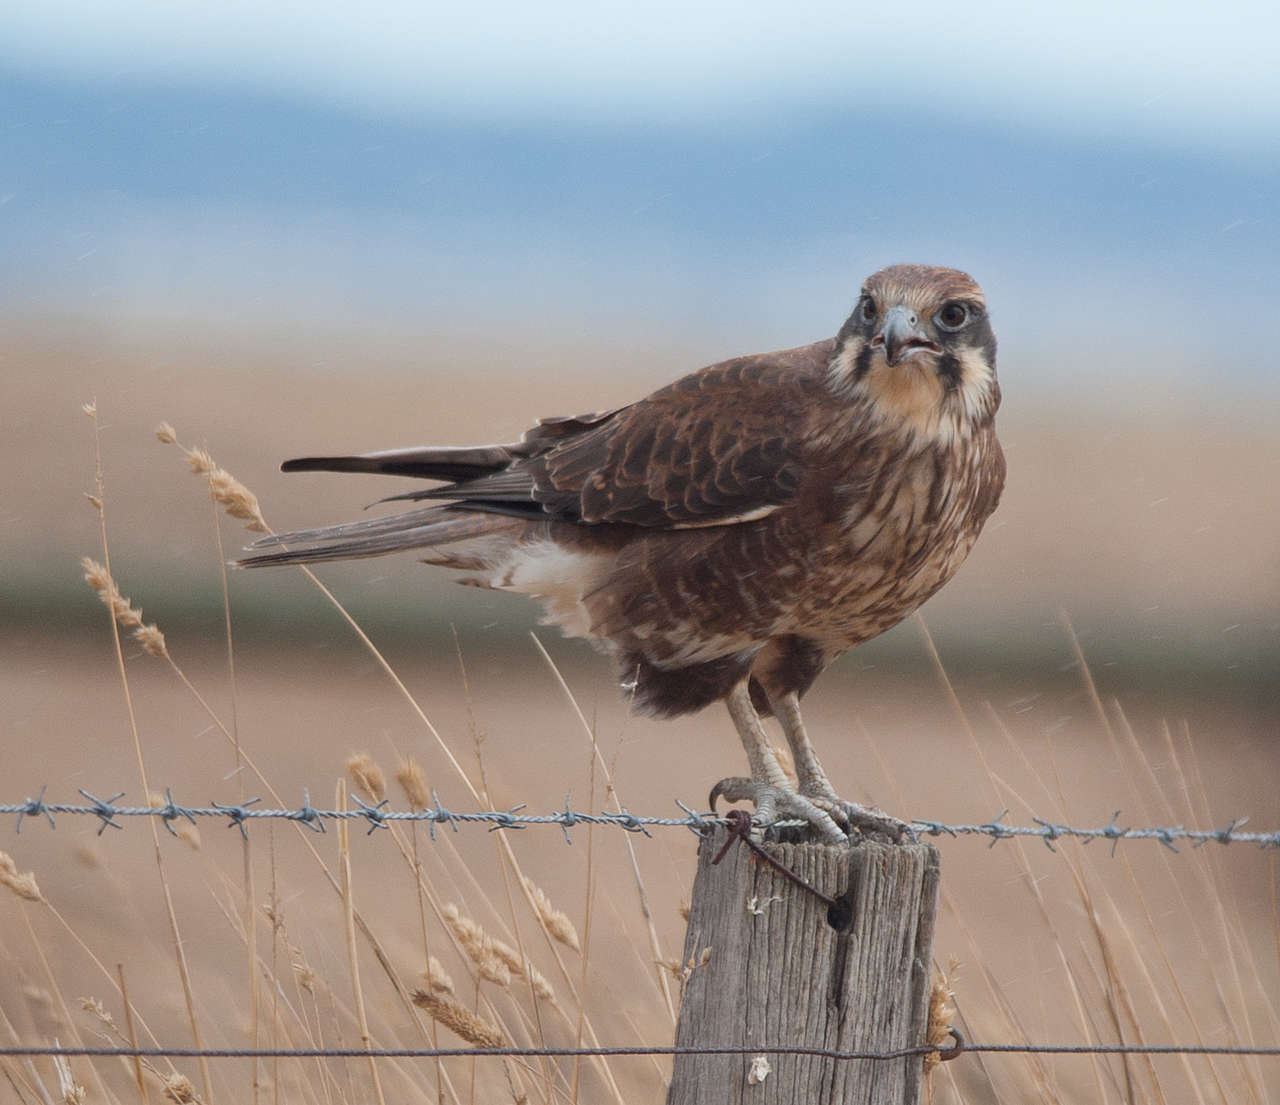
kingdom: Animalia
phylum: Chordata
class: Aves
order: Falconiformes
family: Falconidae
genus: Falco
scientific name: Falco berigora
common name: Brown falcon
